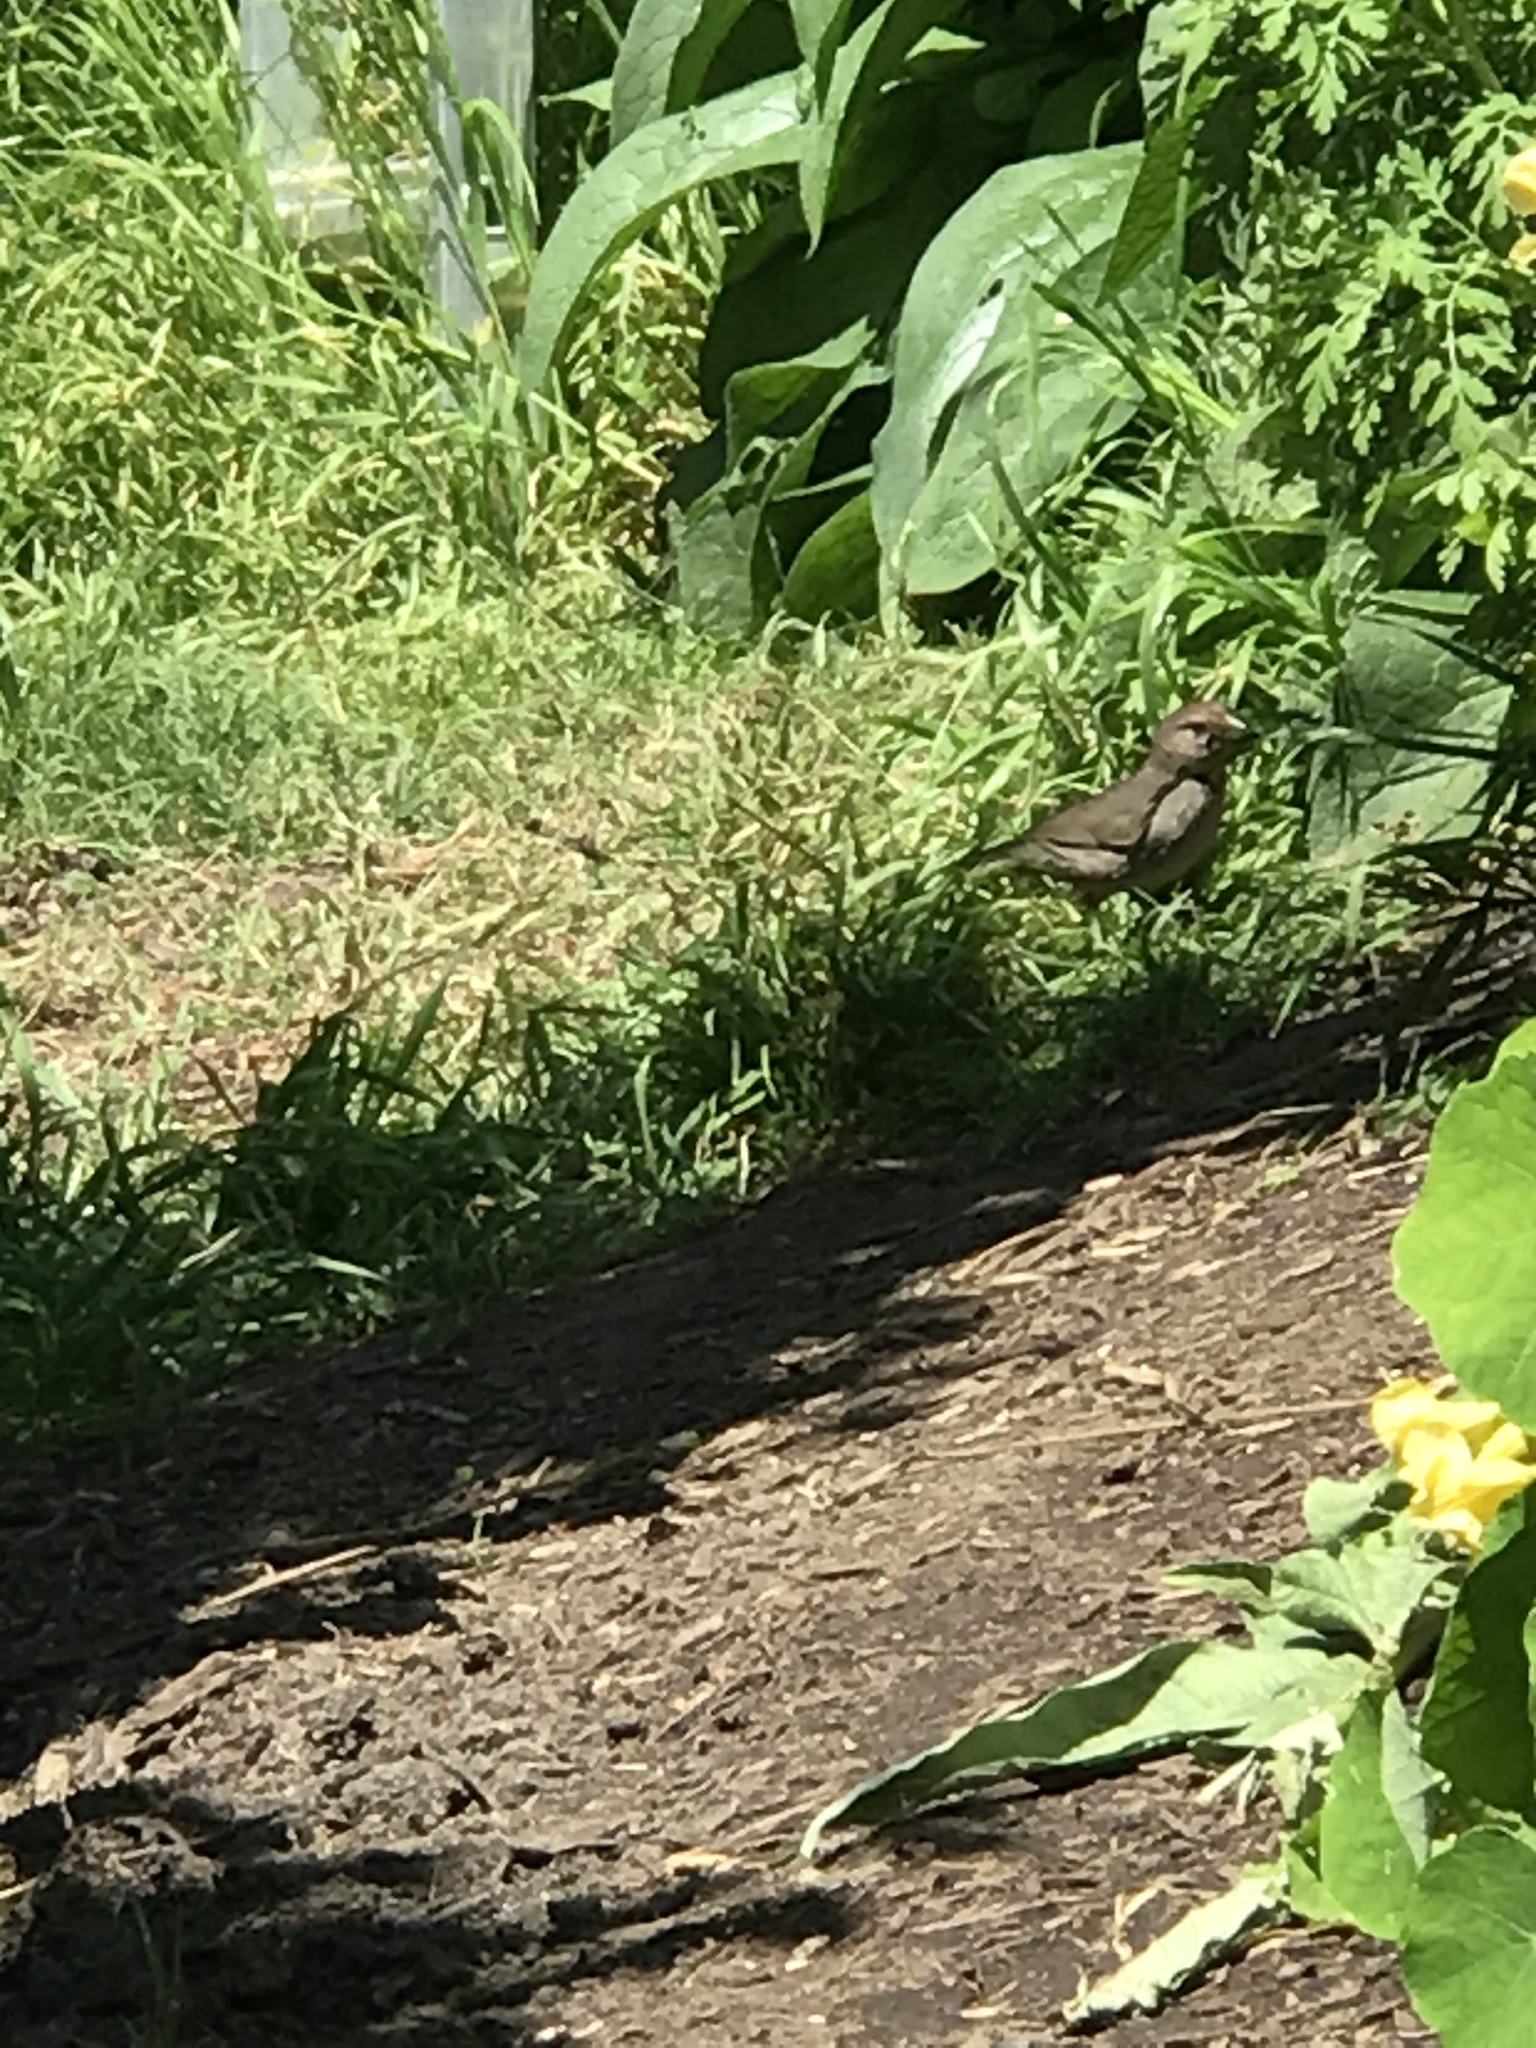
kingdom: Animalia
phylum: Chordata
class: Aves
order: Passeriformes
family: Passerellidae
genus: Melozone
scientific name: Melozone crissalis
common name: California towhee
